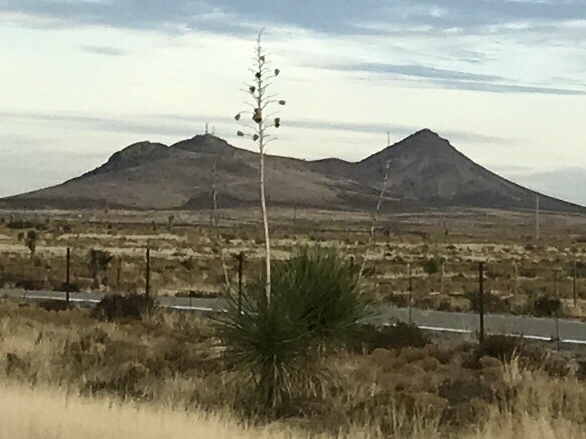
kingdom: Plantae
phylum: Tracheophyta
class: Liliopsida
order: Asparagales
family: Asparagaceae
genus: Yucca
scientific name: Yucca elata
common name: Palmella
